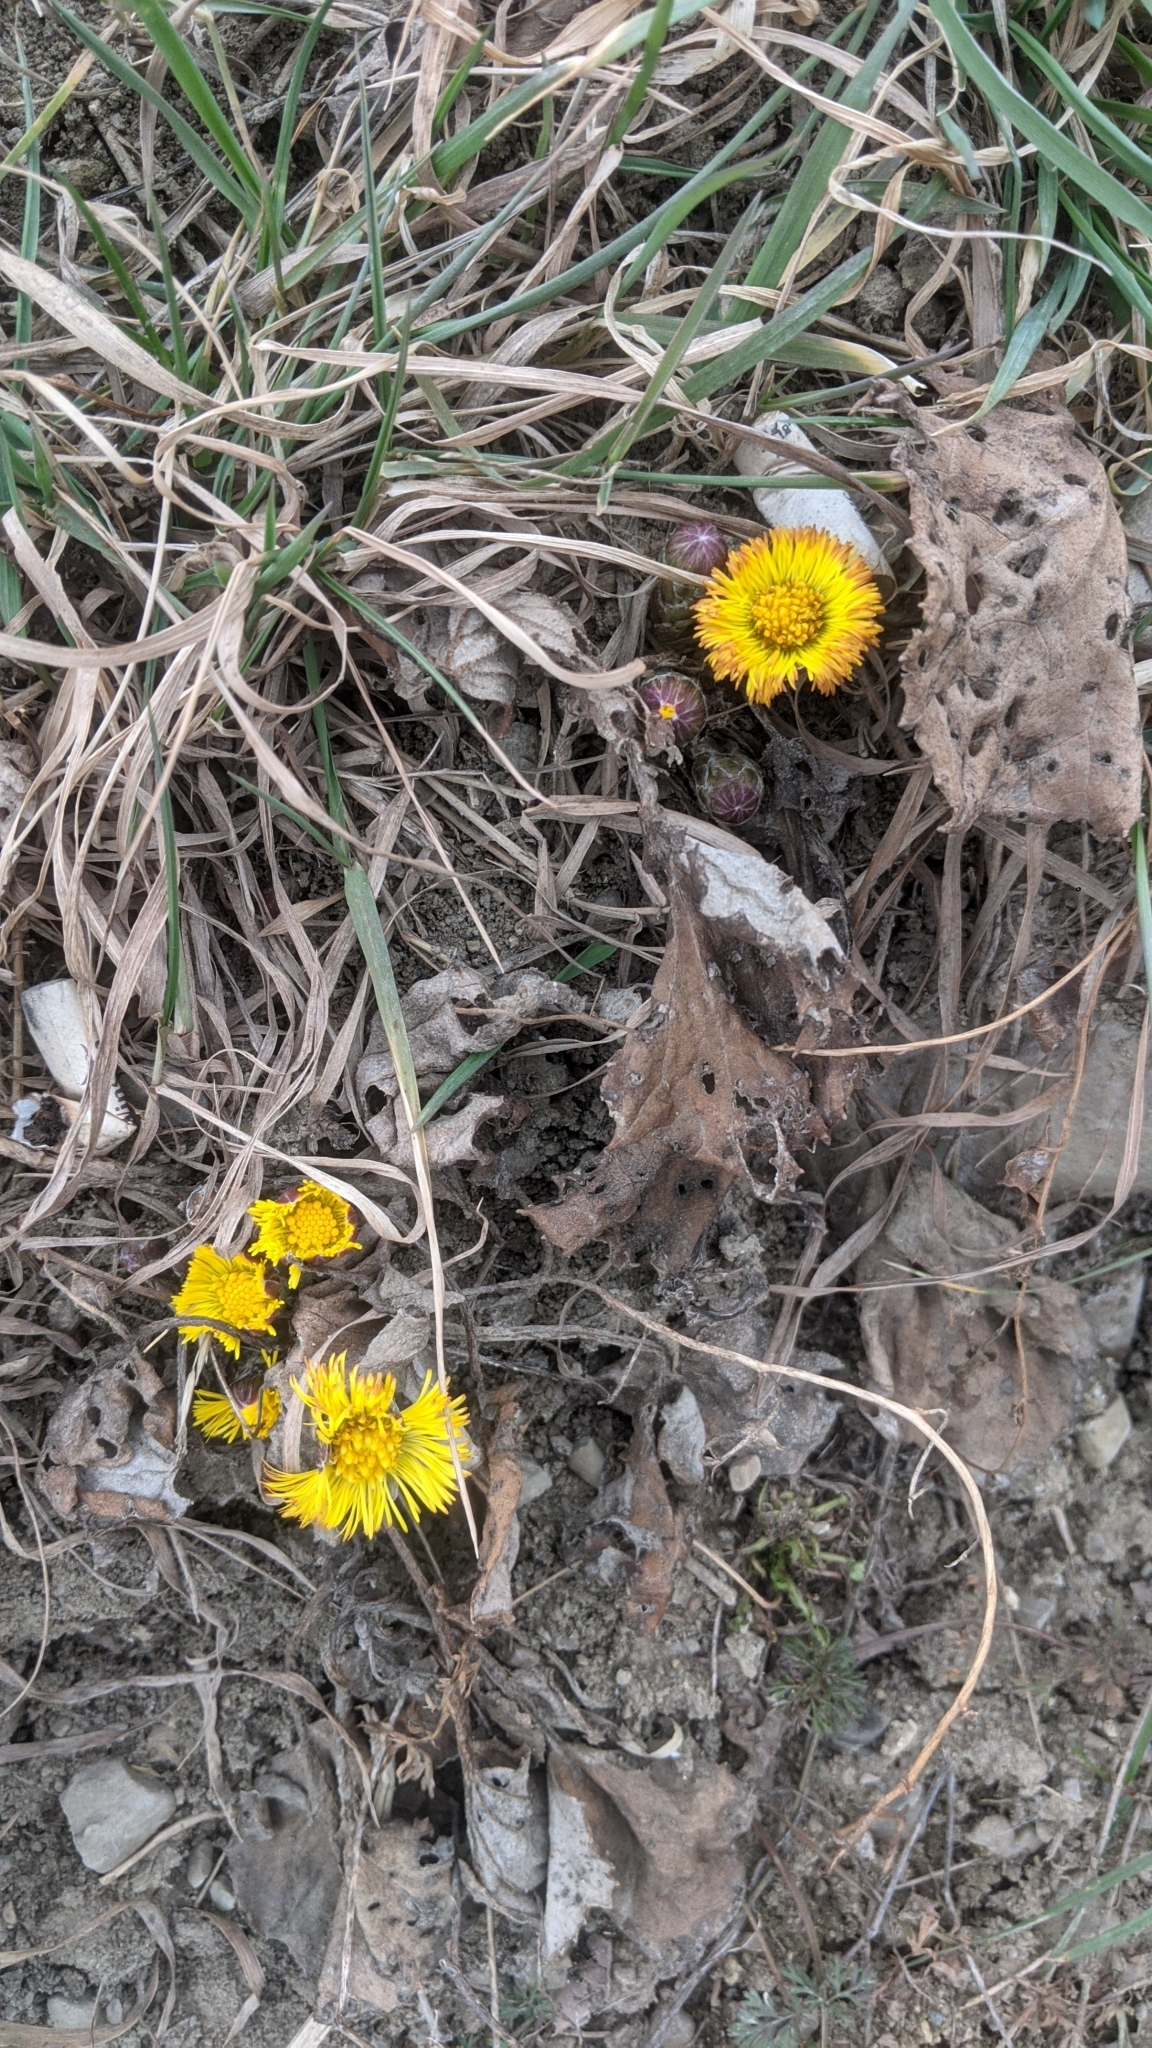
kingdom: Plantae
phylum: Tracheophyta
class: Magnoliopsida
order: Asterales
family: Asteraceae
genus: Tussilago
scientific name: Tussilago farfara
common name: Coltsfoot
